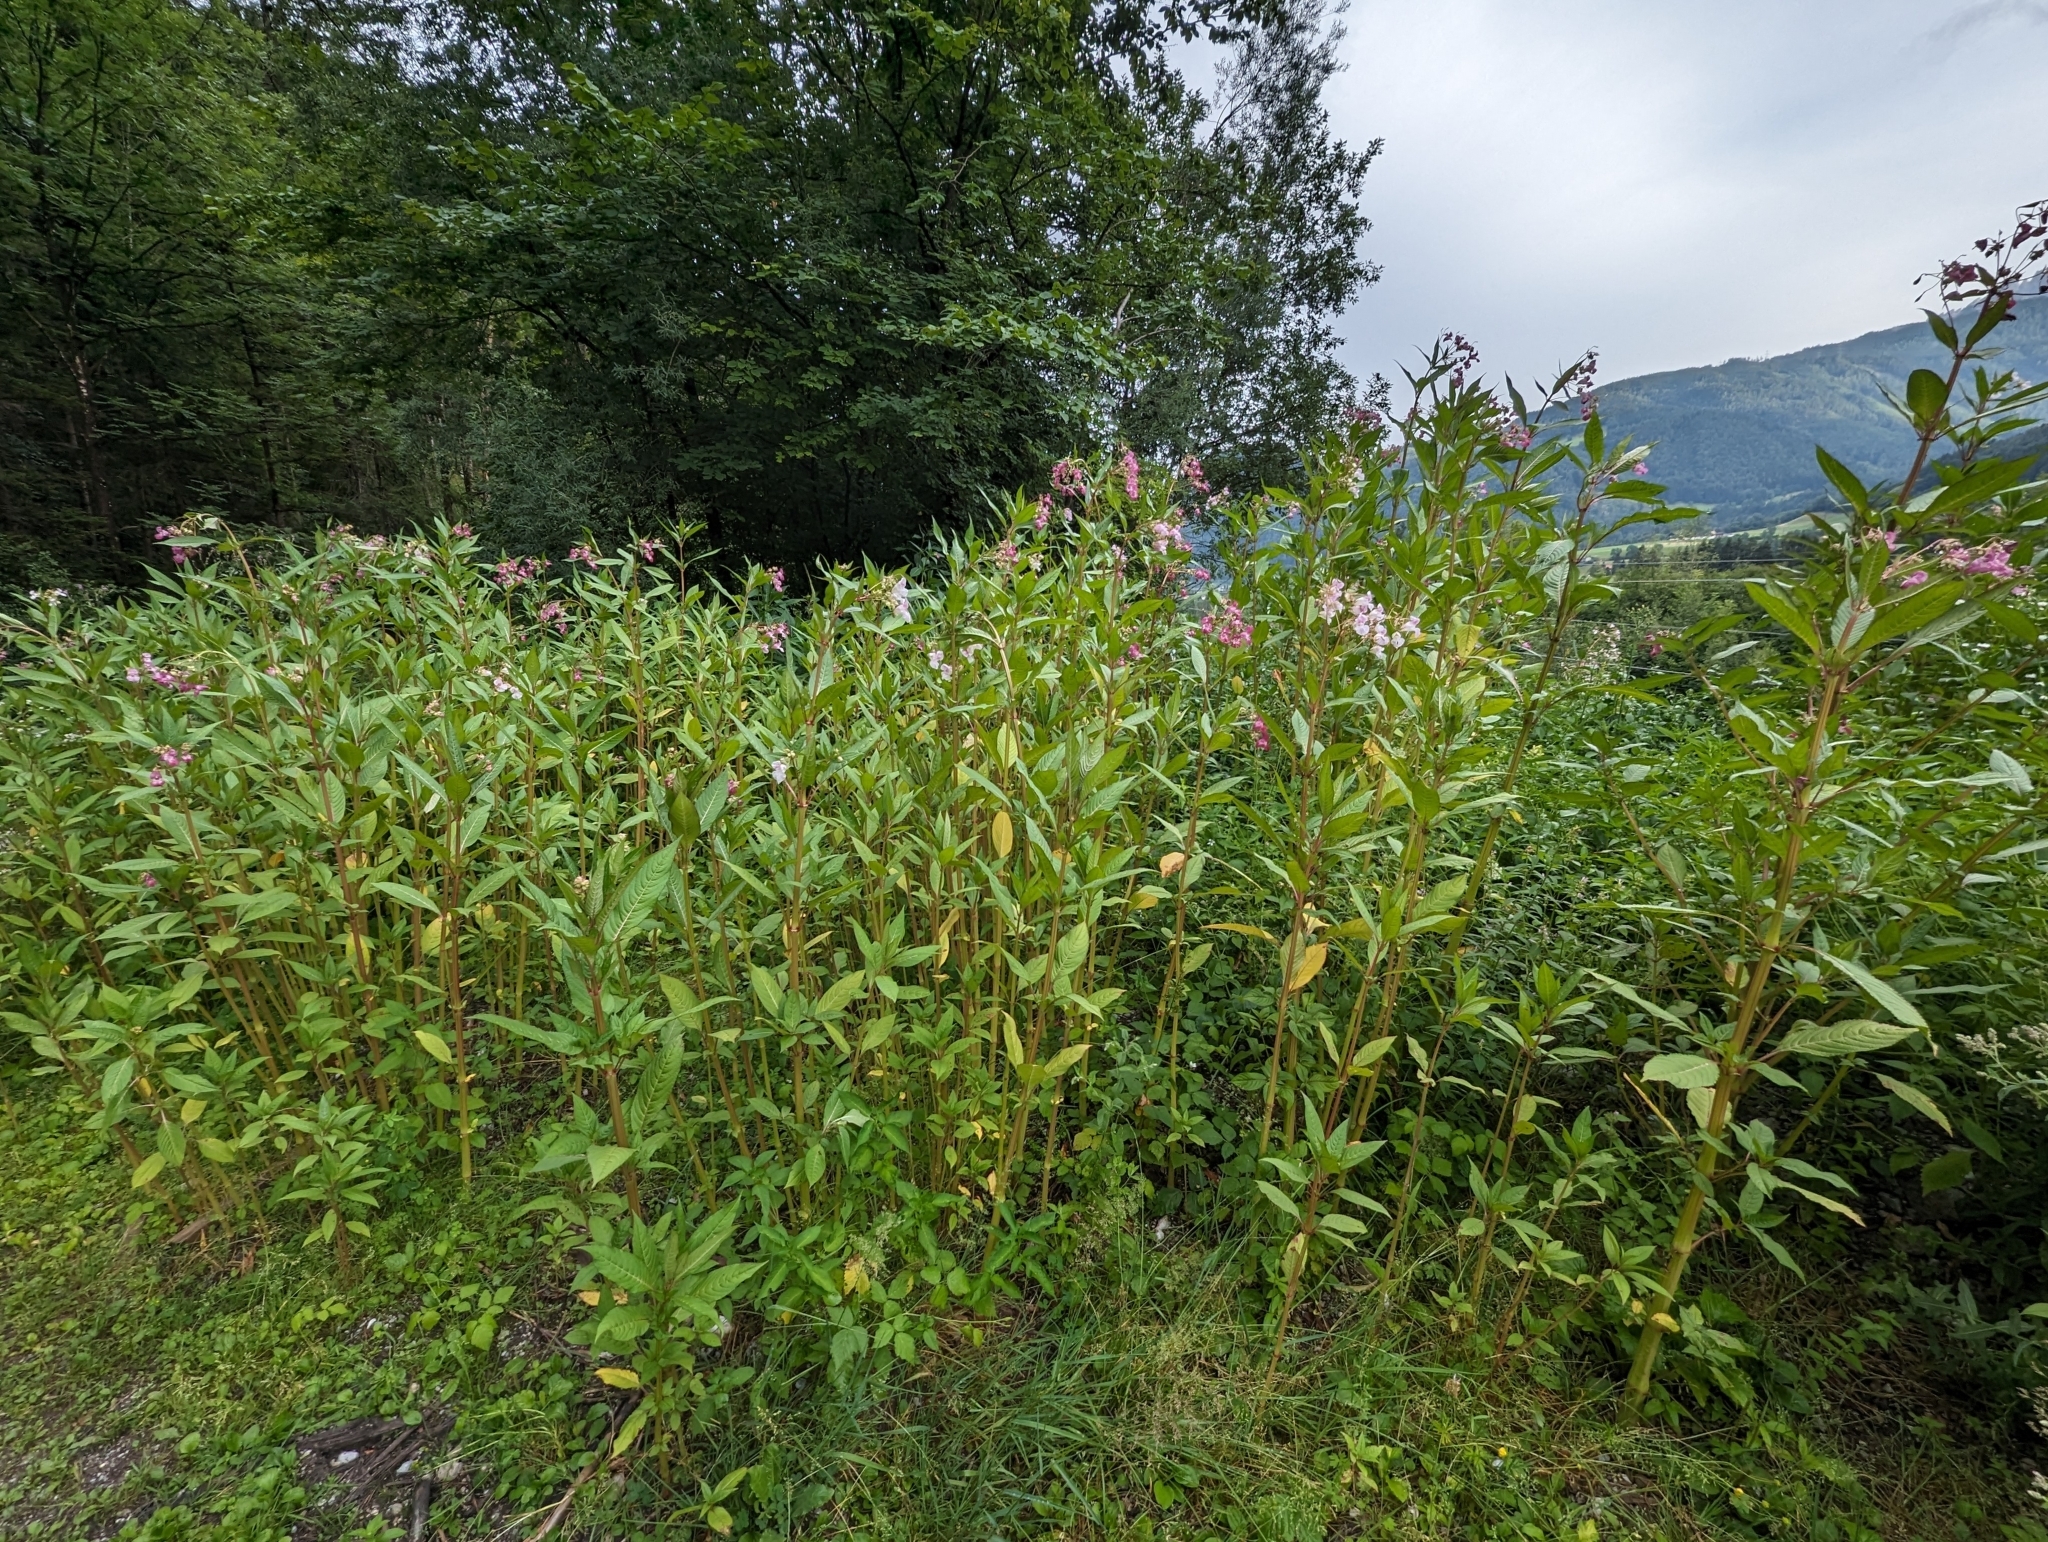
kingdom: Plantae
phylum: Tracheophyta
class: Magnoliopsida
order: Ericales
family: Balsaminaceae
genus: Impatiens
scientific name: Impatiens glandulifera
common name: Himalayan balsam
